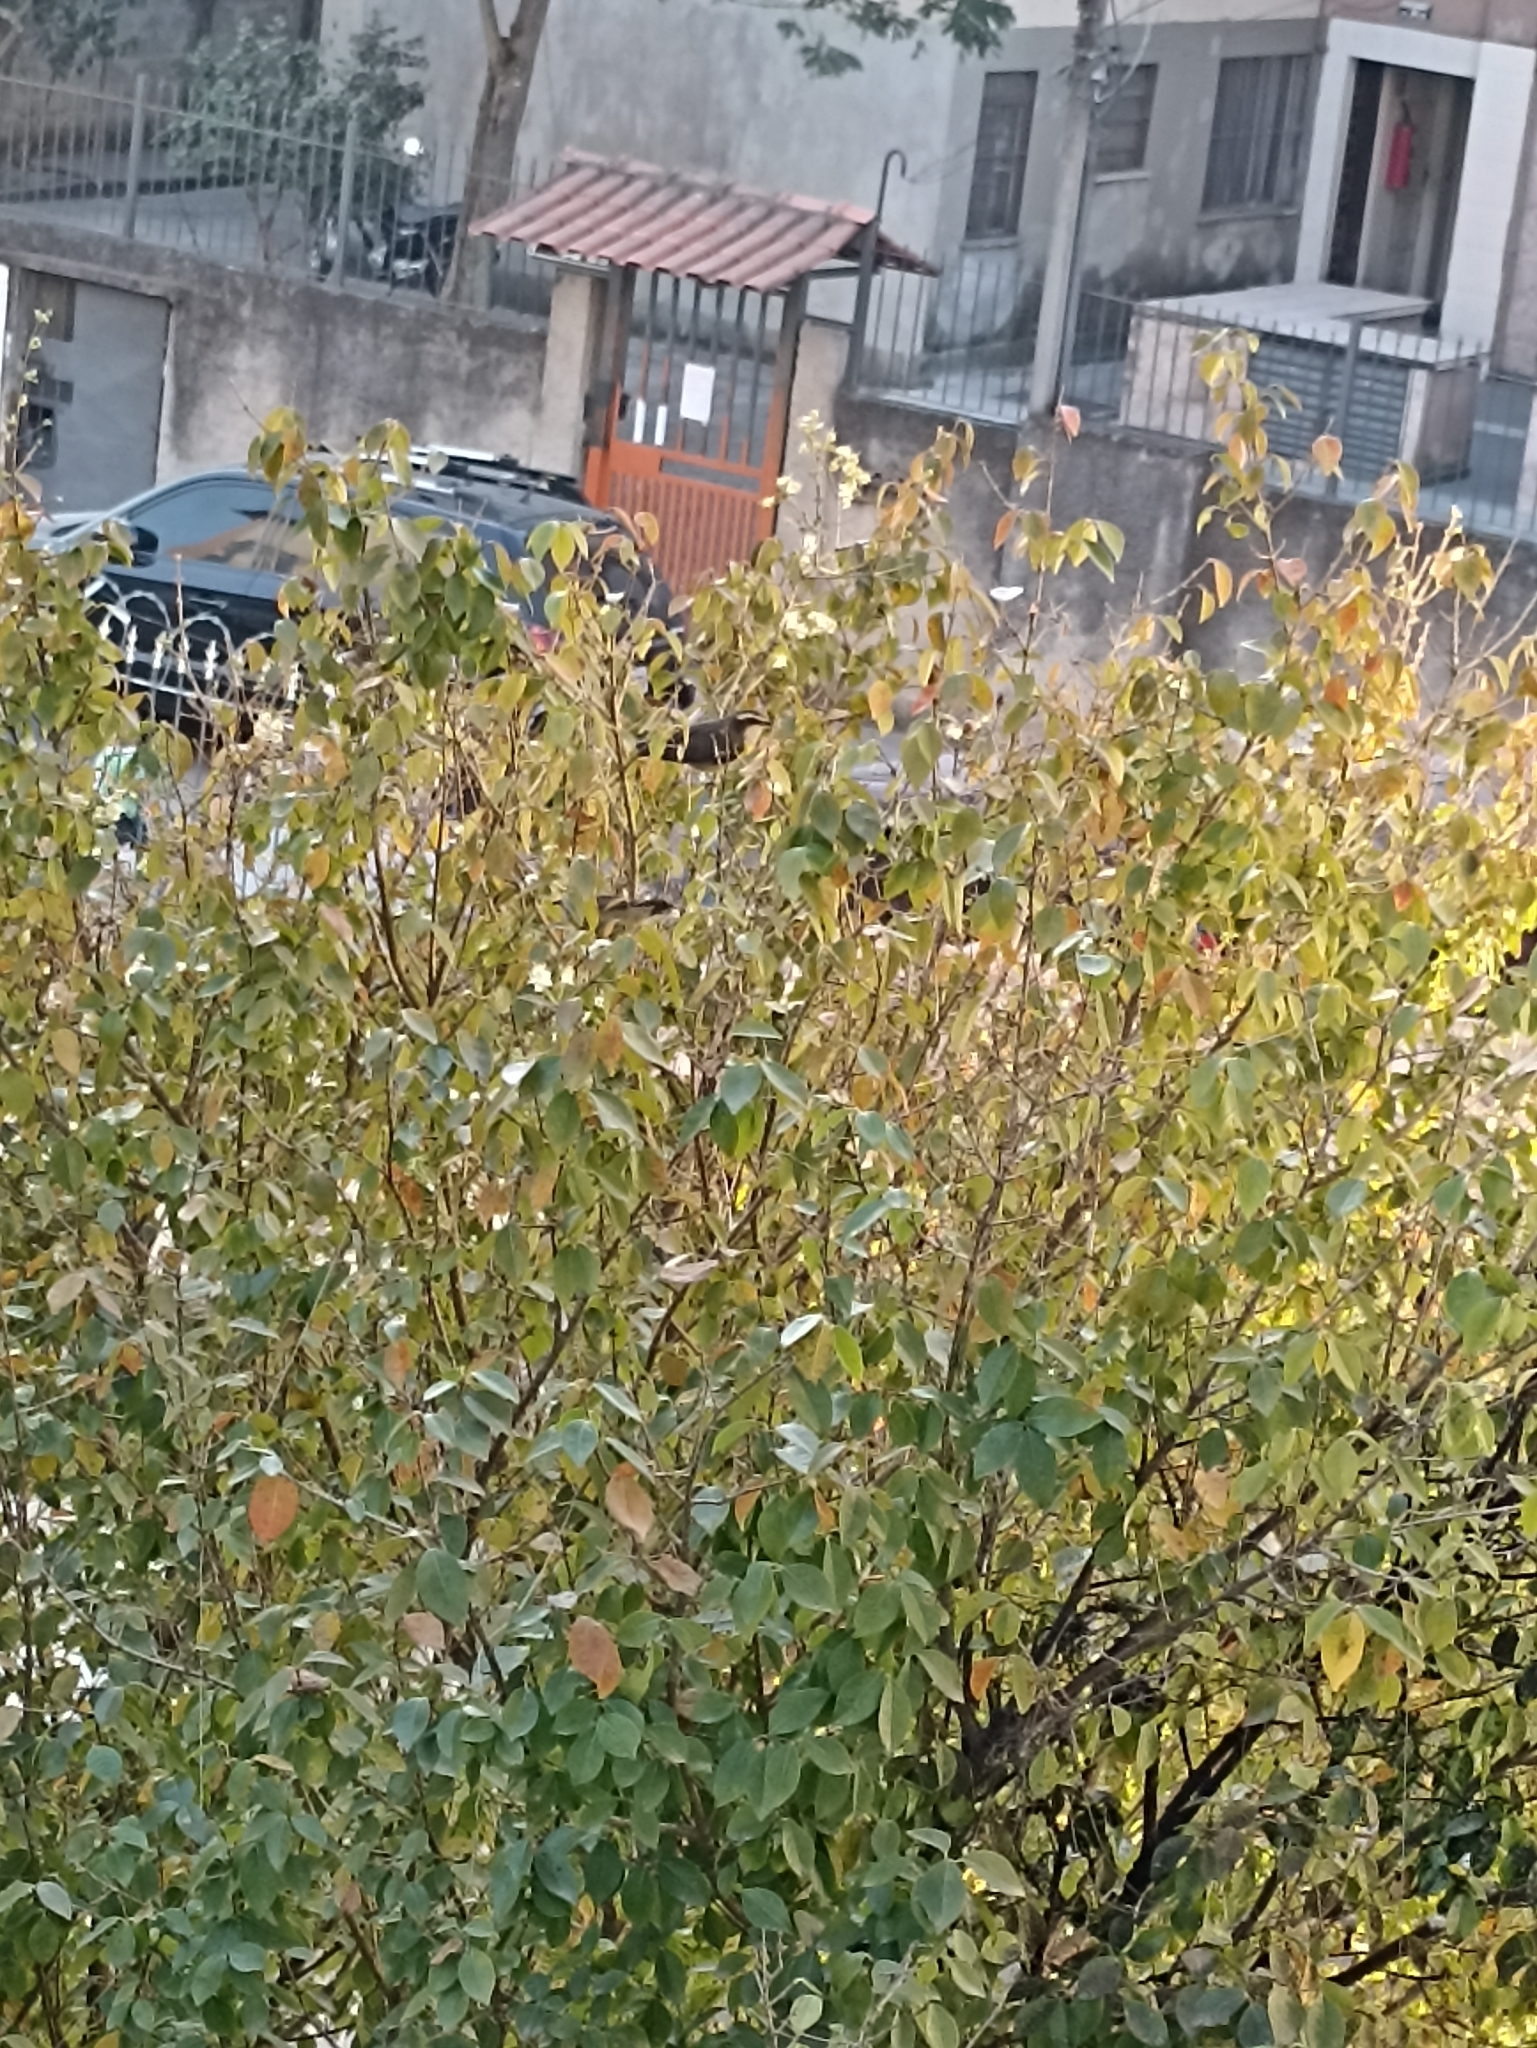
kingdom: Animalia
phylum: Chordata
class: Aves
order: Passeriformes
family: Thraupidae
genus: Coereba
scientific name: Coereba flaveola
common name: Bananaquit
